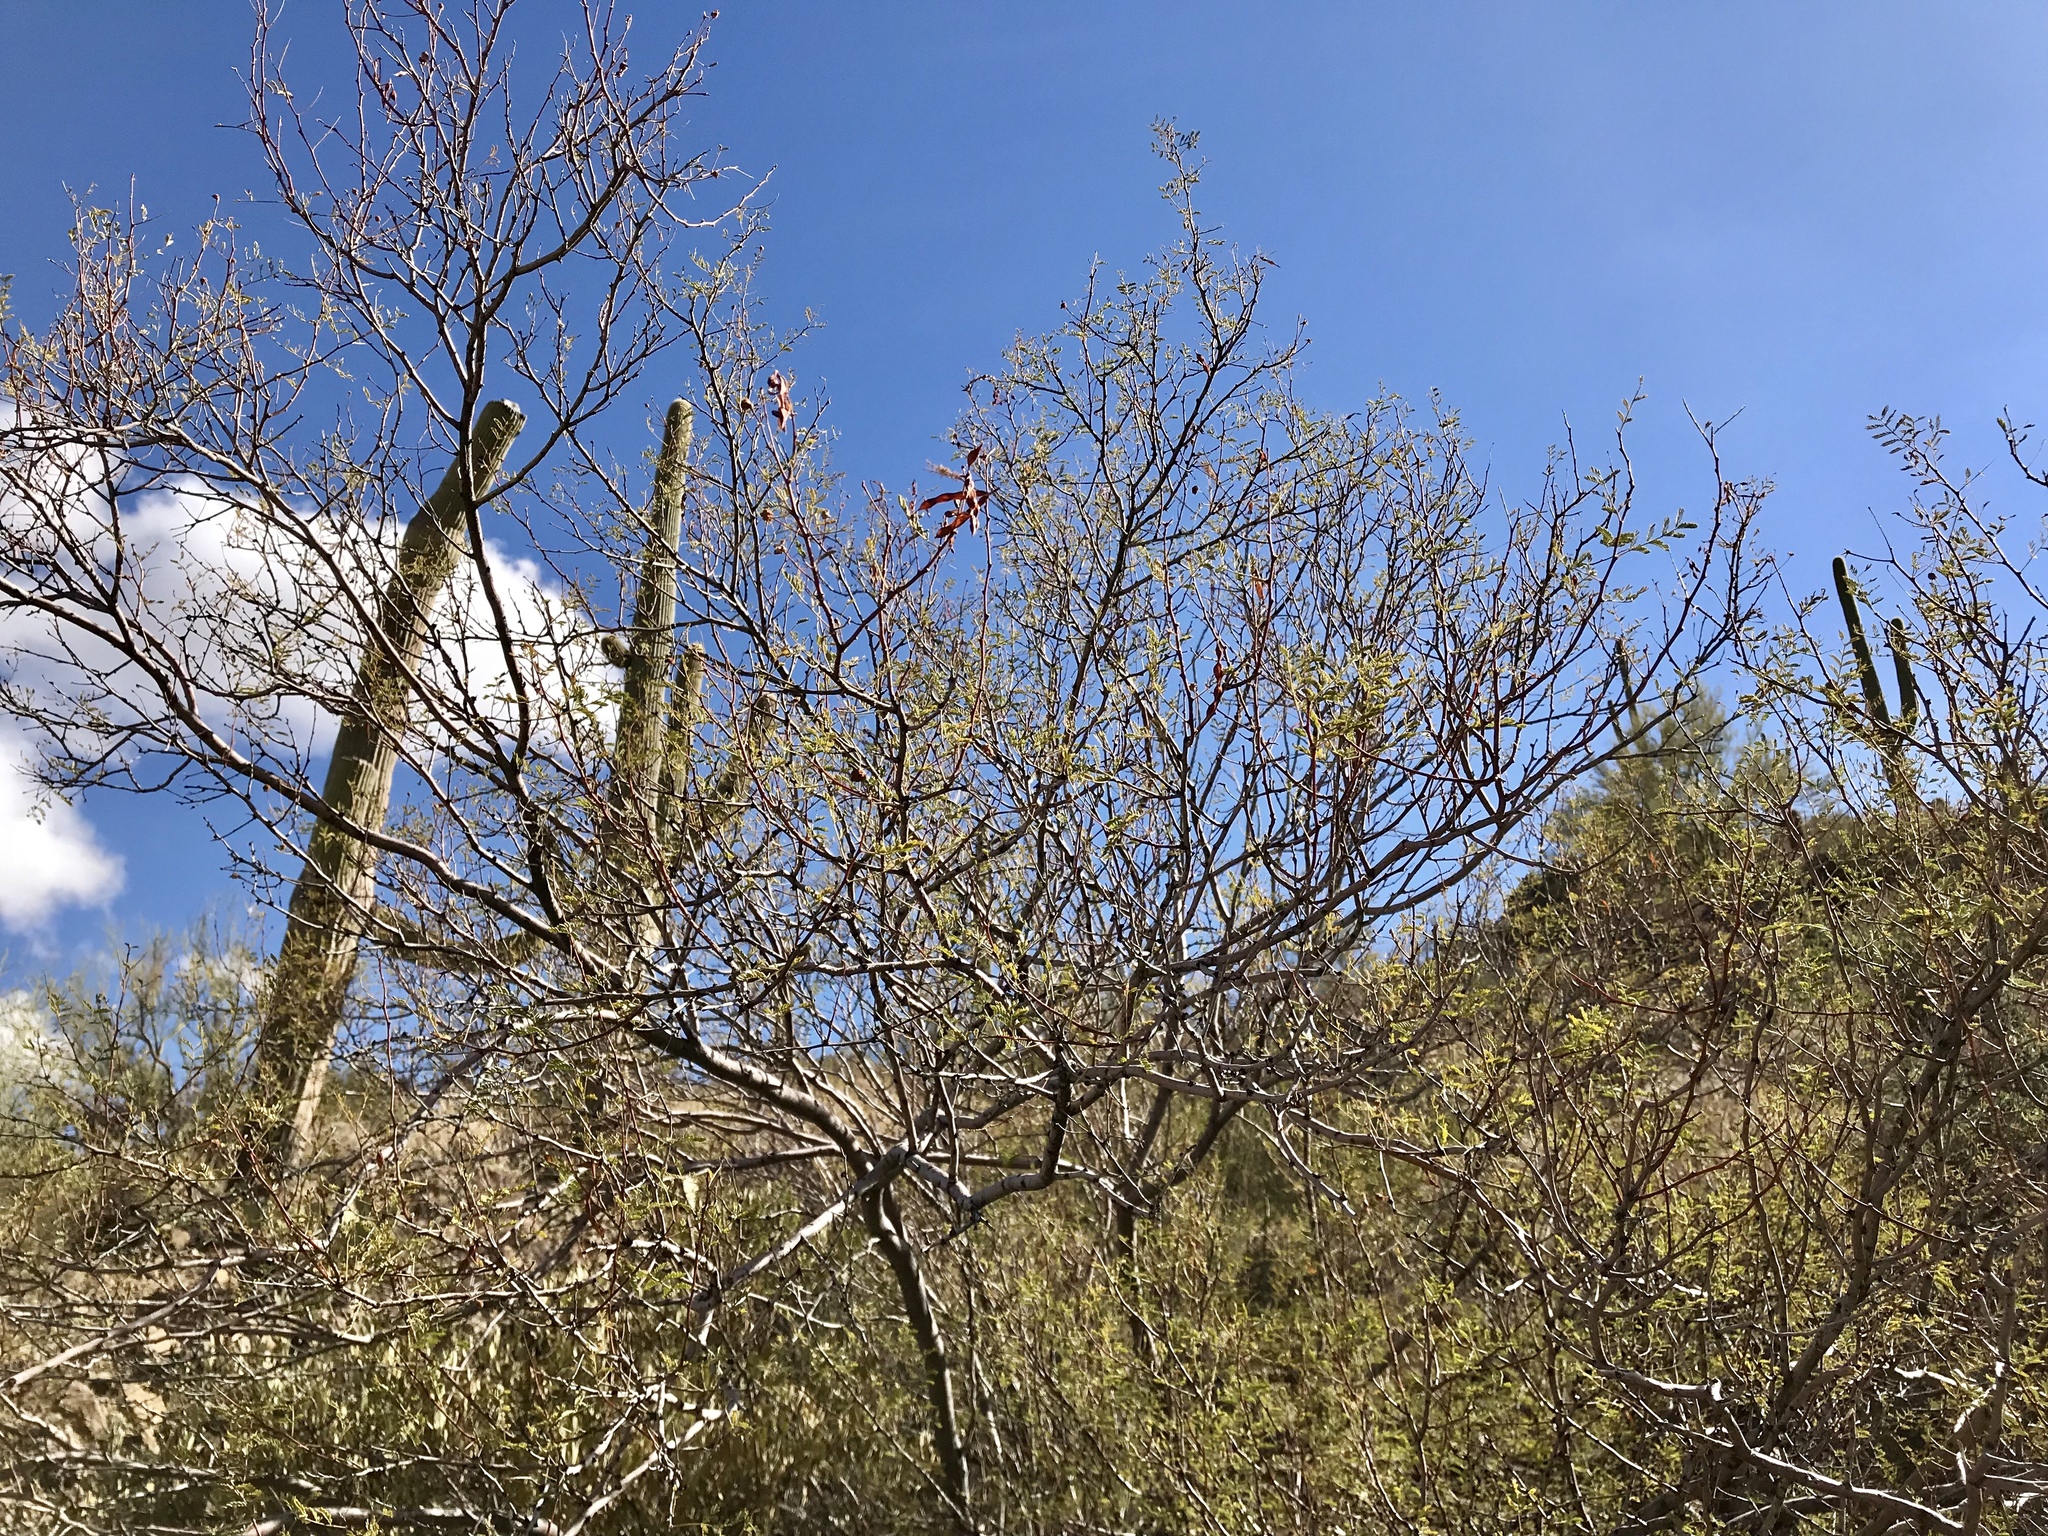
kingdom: Plantae
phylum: Tracheophyta
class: Magnoliopsida
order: Fabales
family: Fabaceae
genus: Vachellia
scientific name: Vachellia constricta
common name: Mescat acacia
